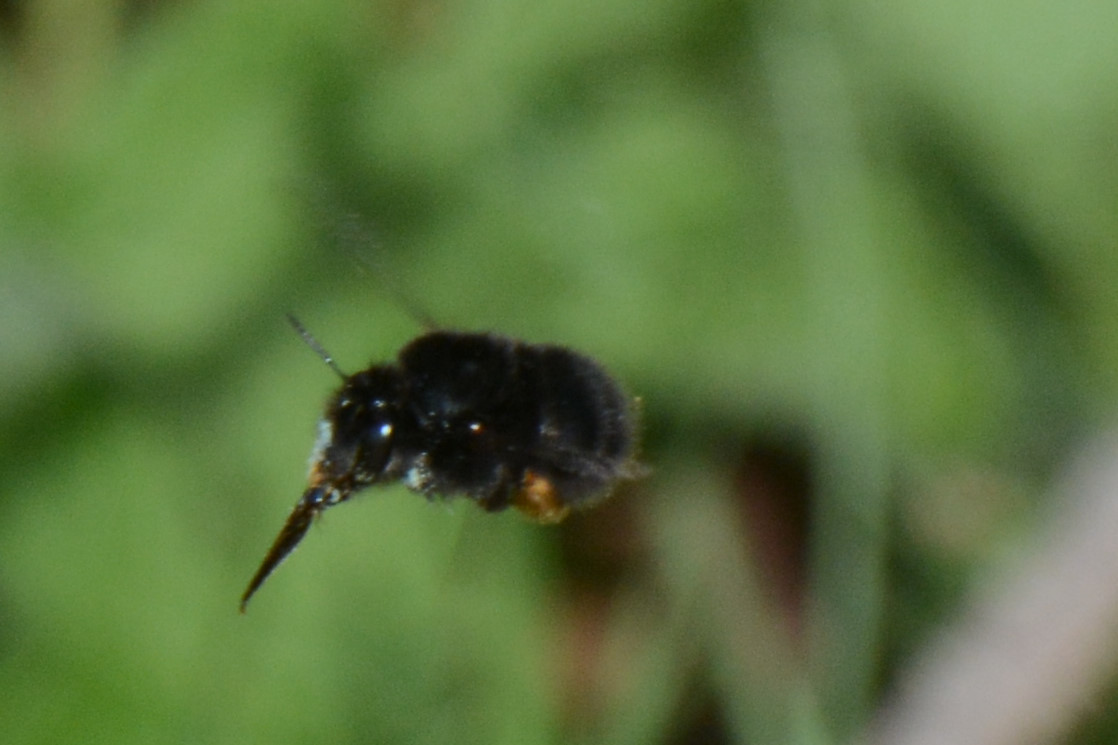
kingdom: Animalia
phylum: Arthropoda
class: Insecta
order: Hymenoptera
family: Apidae
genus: Anthophora
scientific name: Anthophora plumipes
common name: Hairy-footed flower bee
